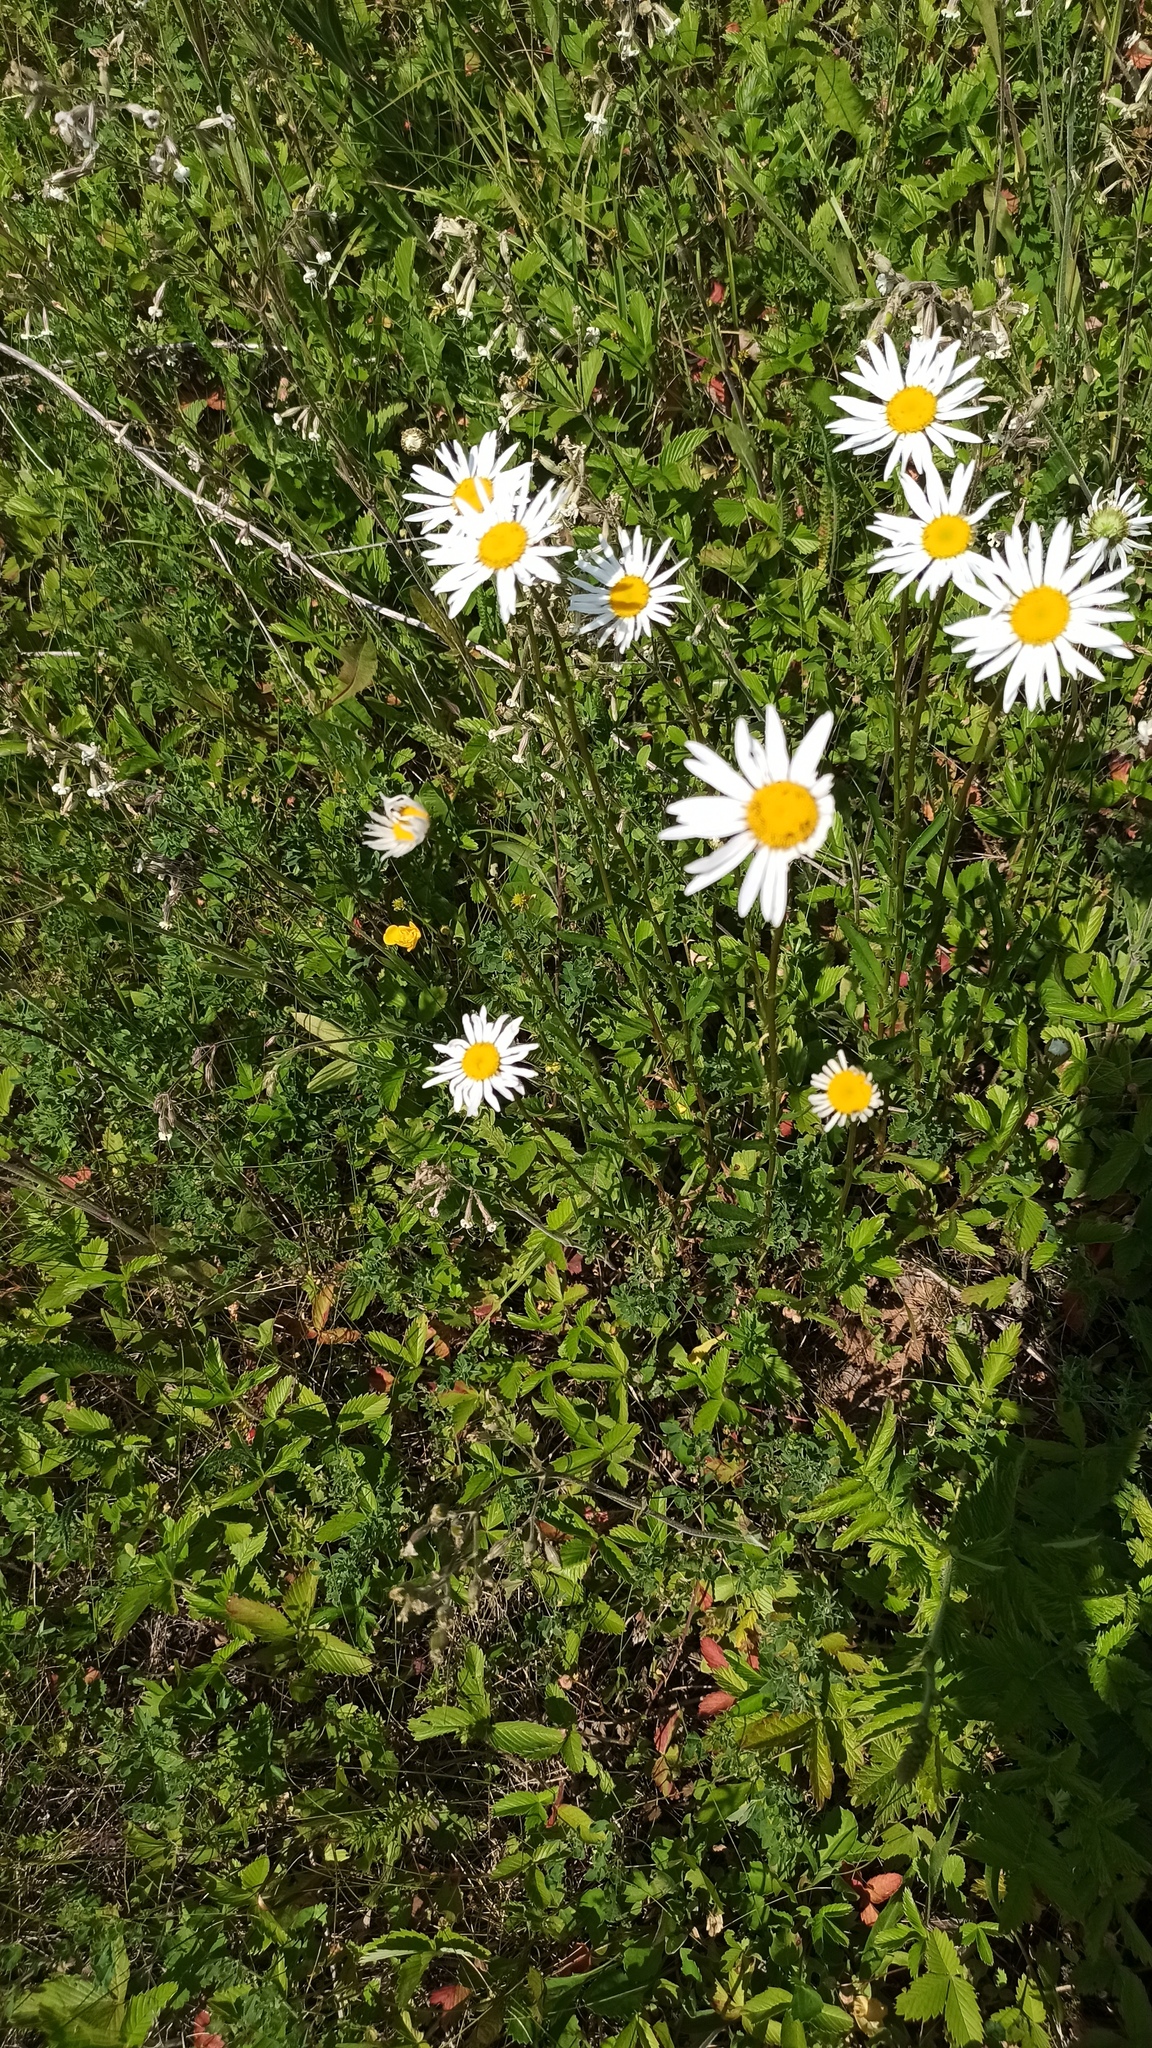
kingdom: Plantae
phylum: Tracheophyta
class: Magnoliopsida
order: Asterales
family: Asteraceae
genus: Leucanthemum
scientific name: Leucanthemum vulgare
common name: Oxeye daisy
